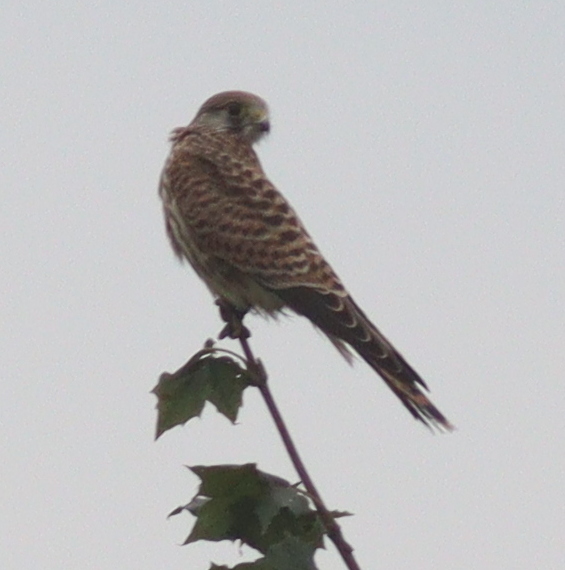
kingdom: Animalia
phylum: Chordata
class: Aves
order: Falconiformes
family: Falconidae
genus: Falco
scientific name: Falco tinnunculus
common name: Common kestrel
